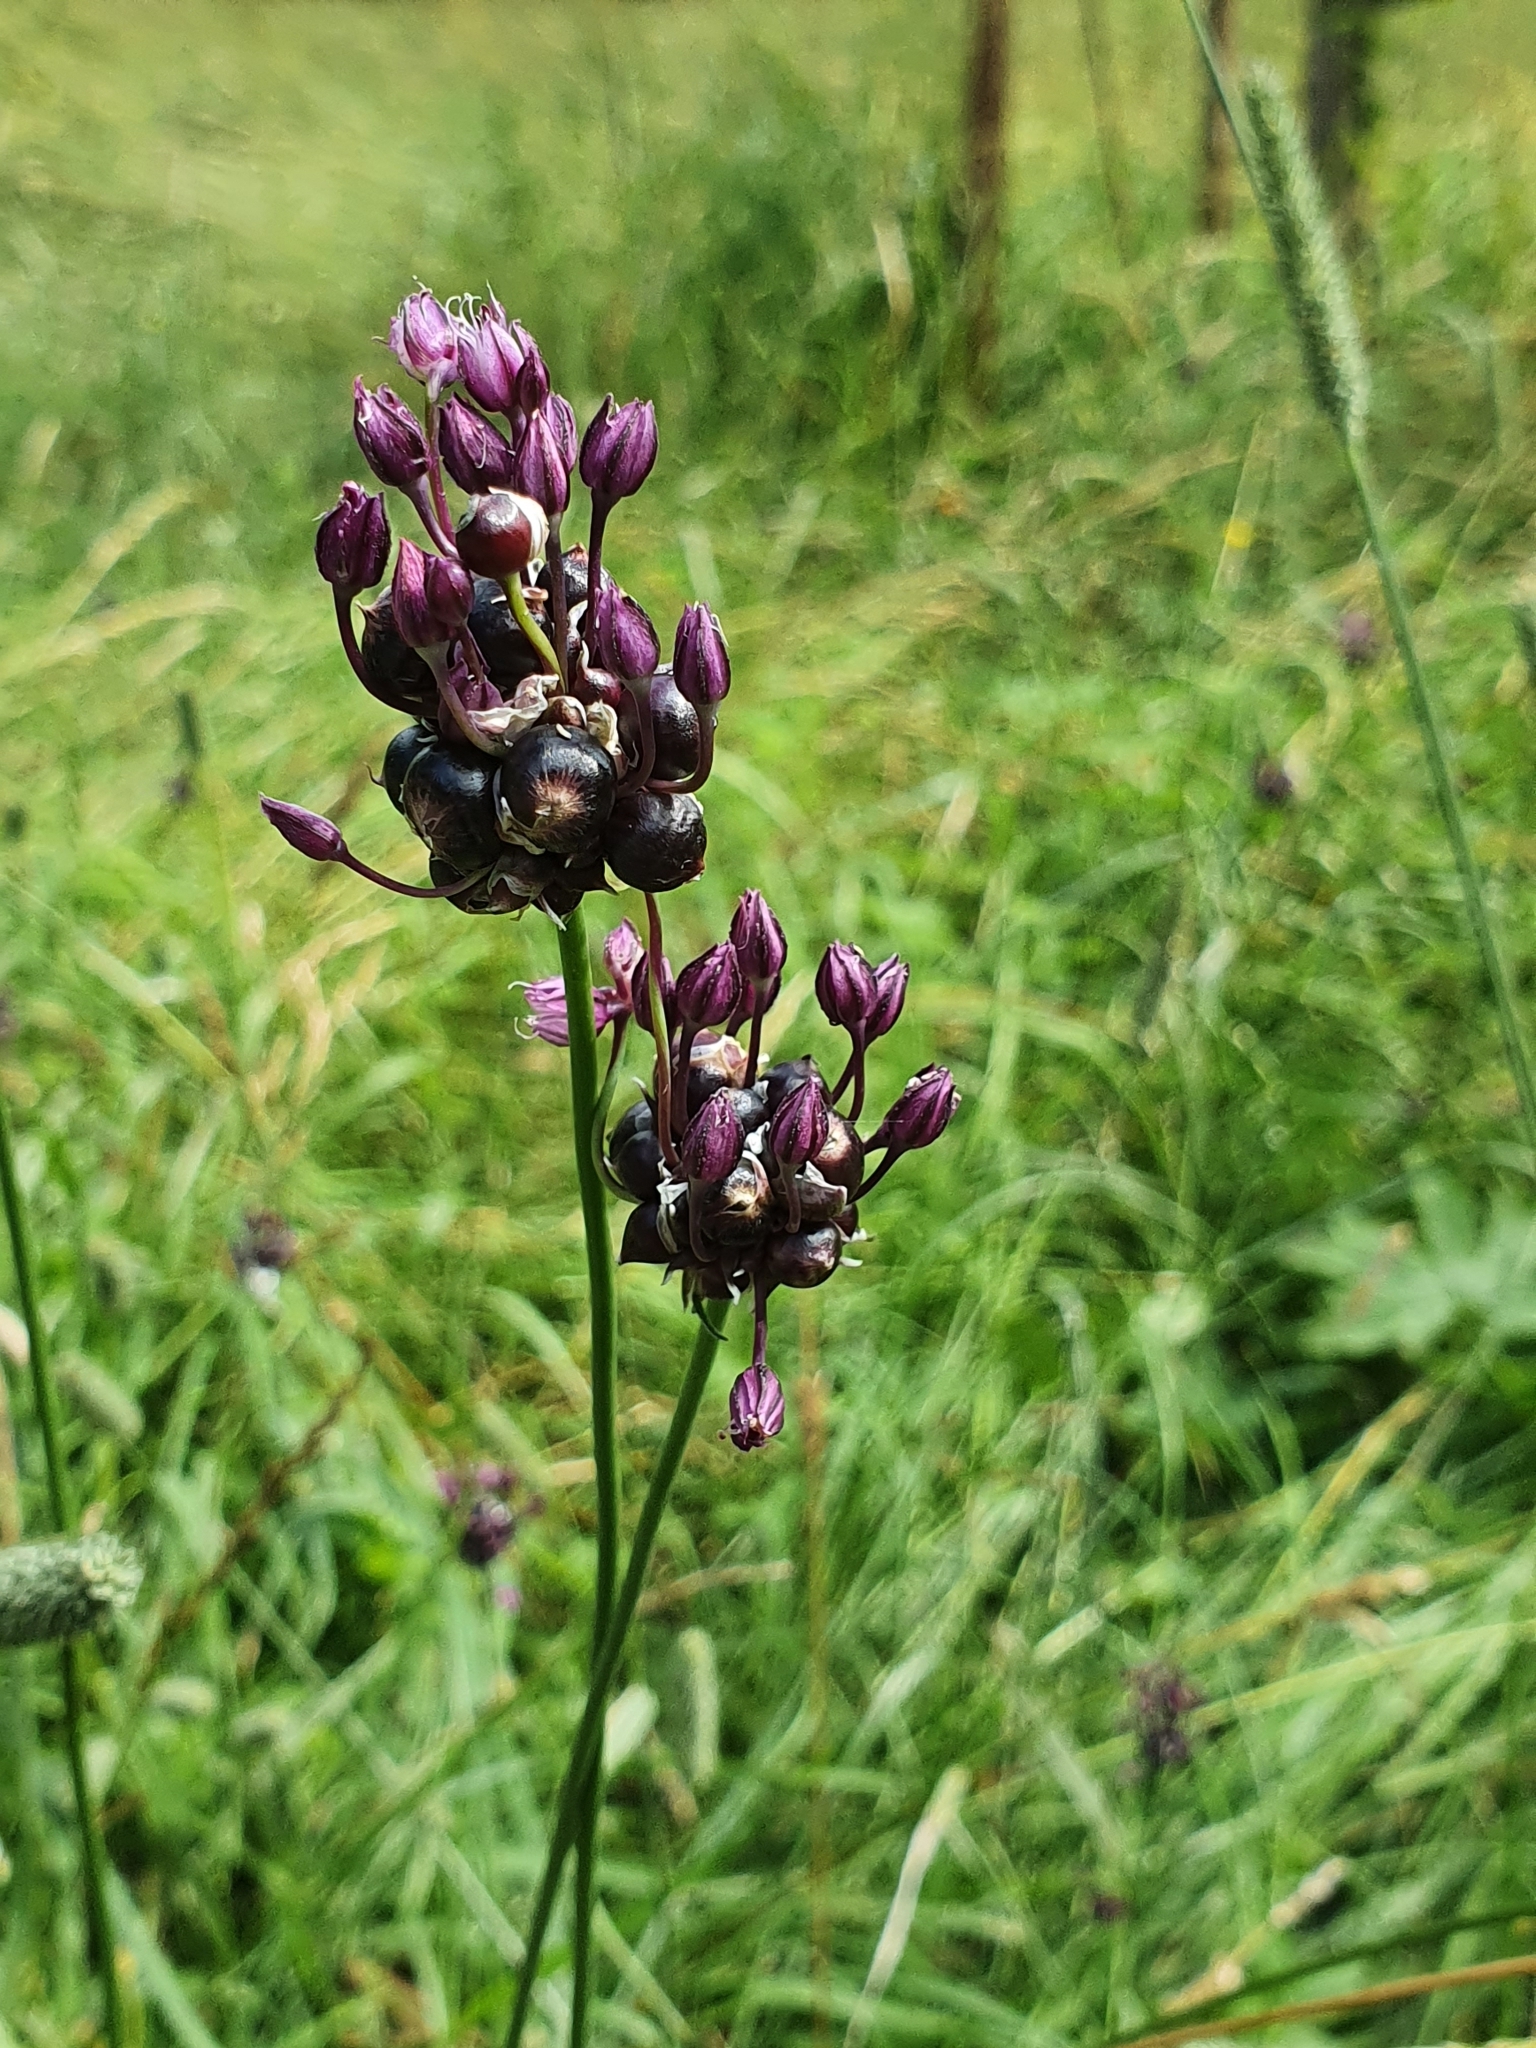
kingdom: Plantae
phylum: Tracheophyta
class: Liliopsida
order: Asparagales
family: Amaryllidaceae
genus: Allium
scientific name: Allium scorodoprasum
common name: Sand leek
